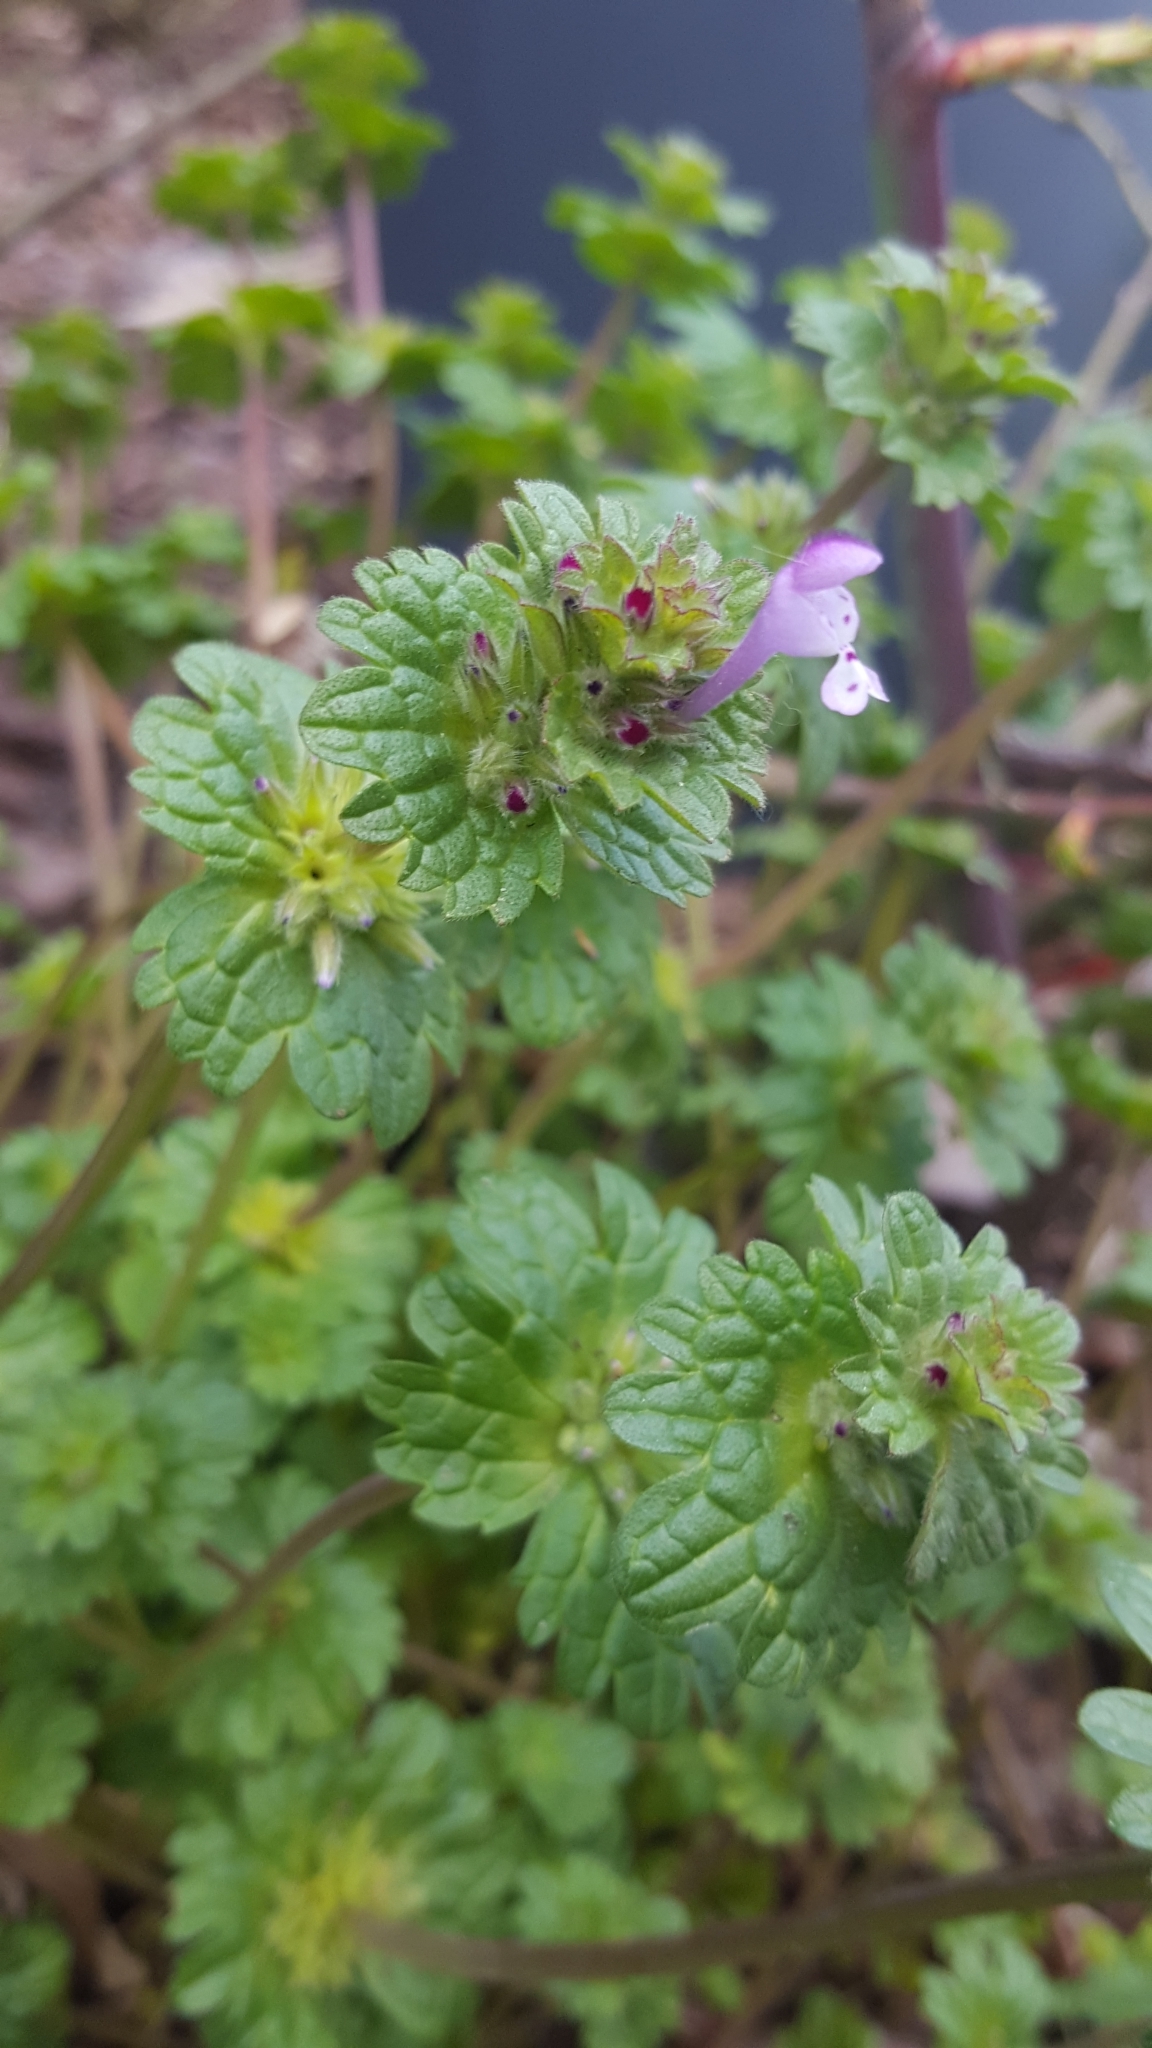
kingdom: Plantae
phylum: Tracheophyta
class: Magnoliopsida
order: Lamiales
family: Lamiaceae
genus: Lamium
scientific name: Lamium amplexicaule
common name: Henbit dead-nettle
